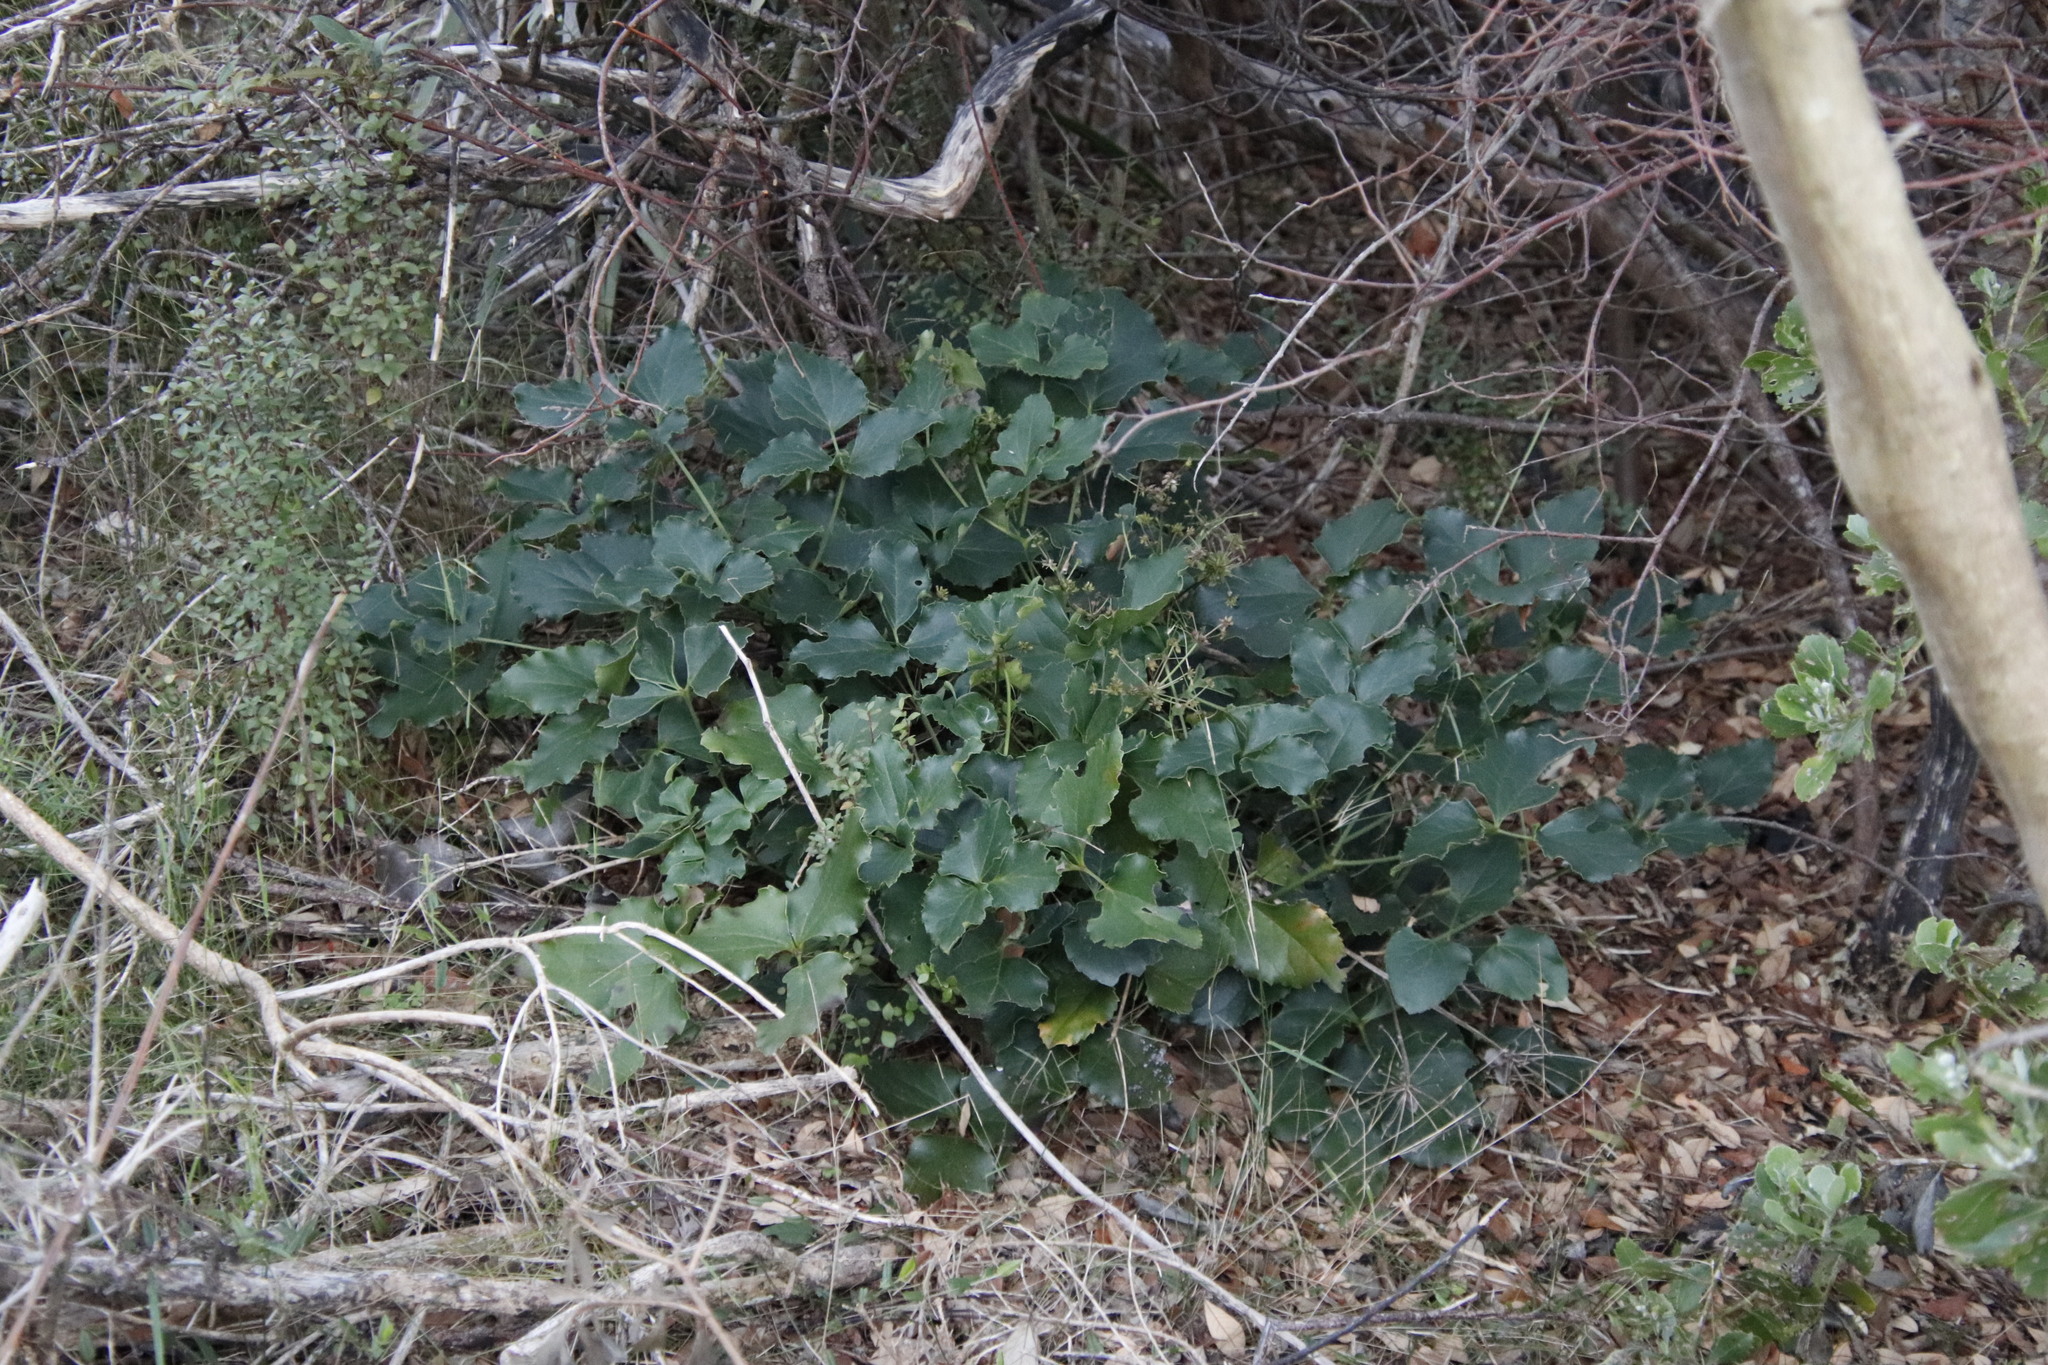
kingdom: Plantae
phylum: Tracheophyta
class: Magnoliopsida
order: Ranunculales
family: Ranunculaceae
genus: Knowltonia
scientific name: Knowltonia vesicatoria
